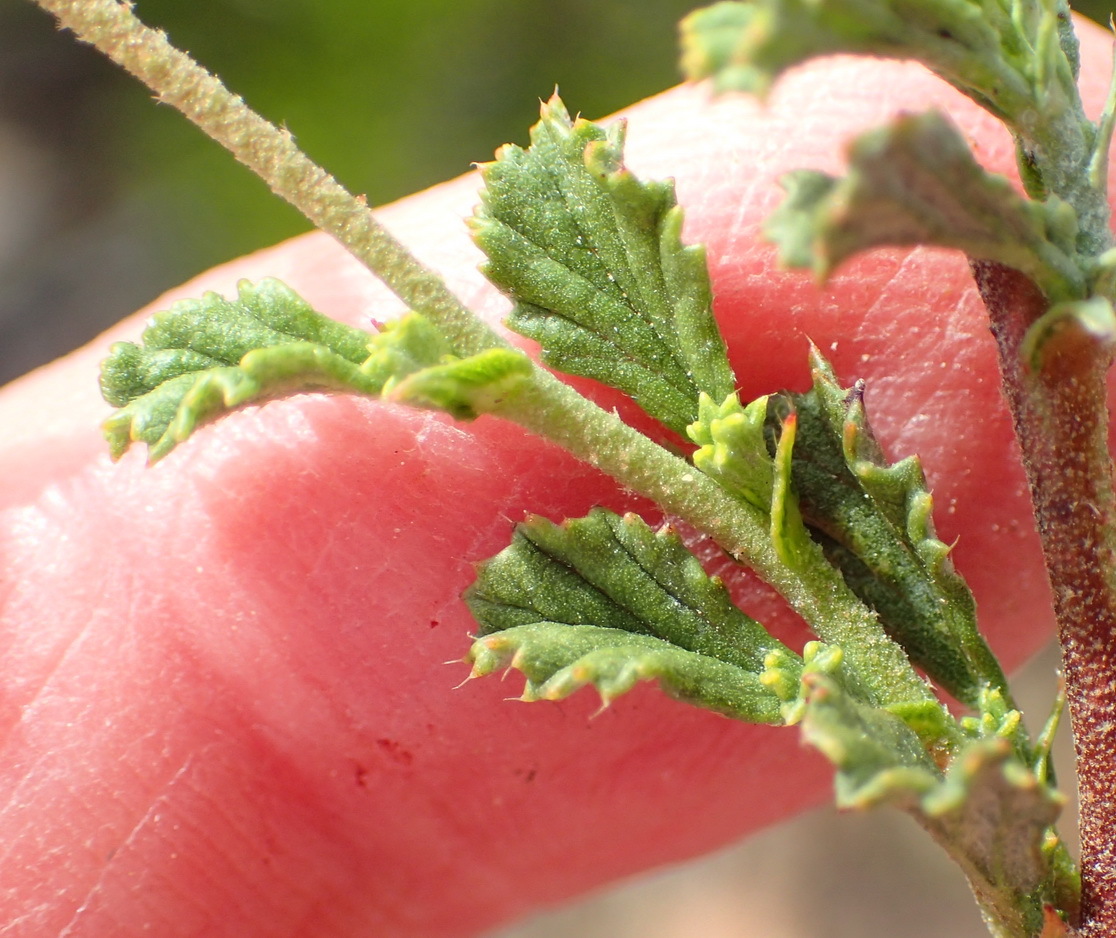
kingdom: Plantae
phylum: Tracheophyta
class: Magnoliopsida
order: Malvales
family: Malvaceae
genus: Hermannia
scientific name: Hermannia alnifolia
